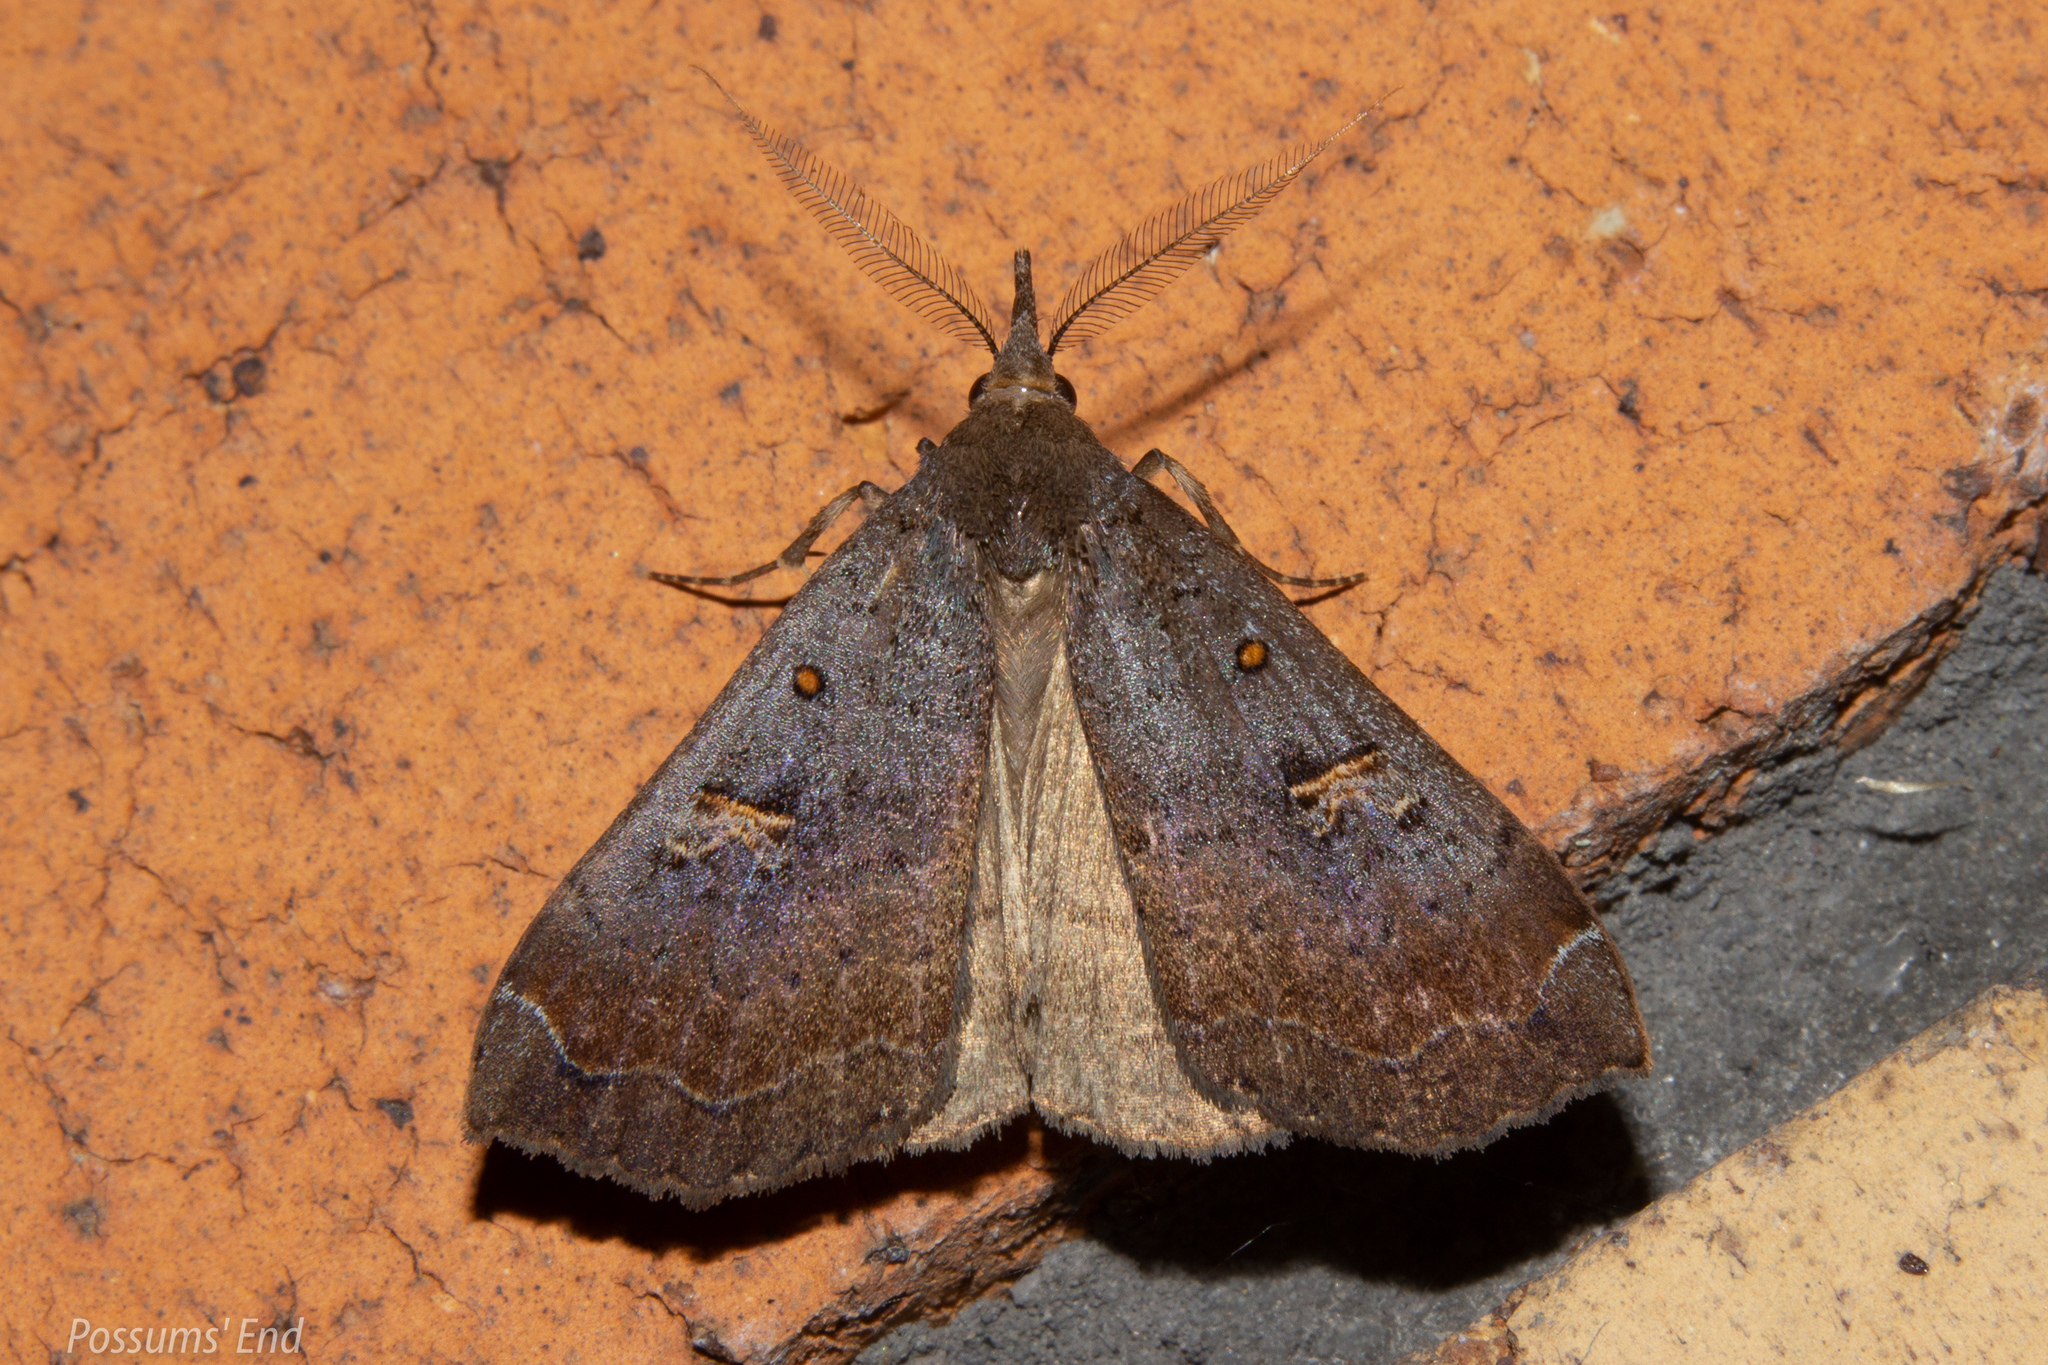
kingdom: Animalia
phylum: Arthropoda
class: Insecta
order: Lepidoptera
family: Erebidae
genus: Rhapsa
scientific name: Rhapsa scotosialis
